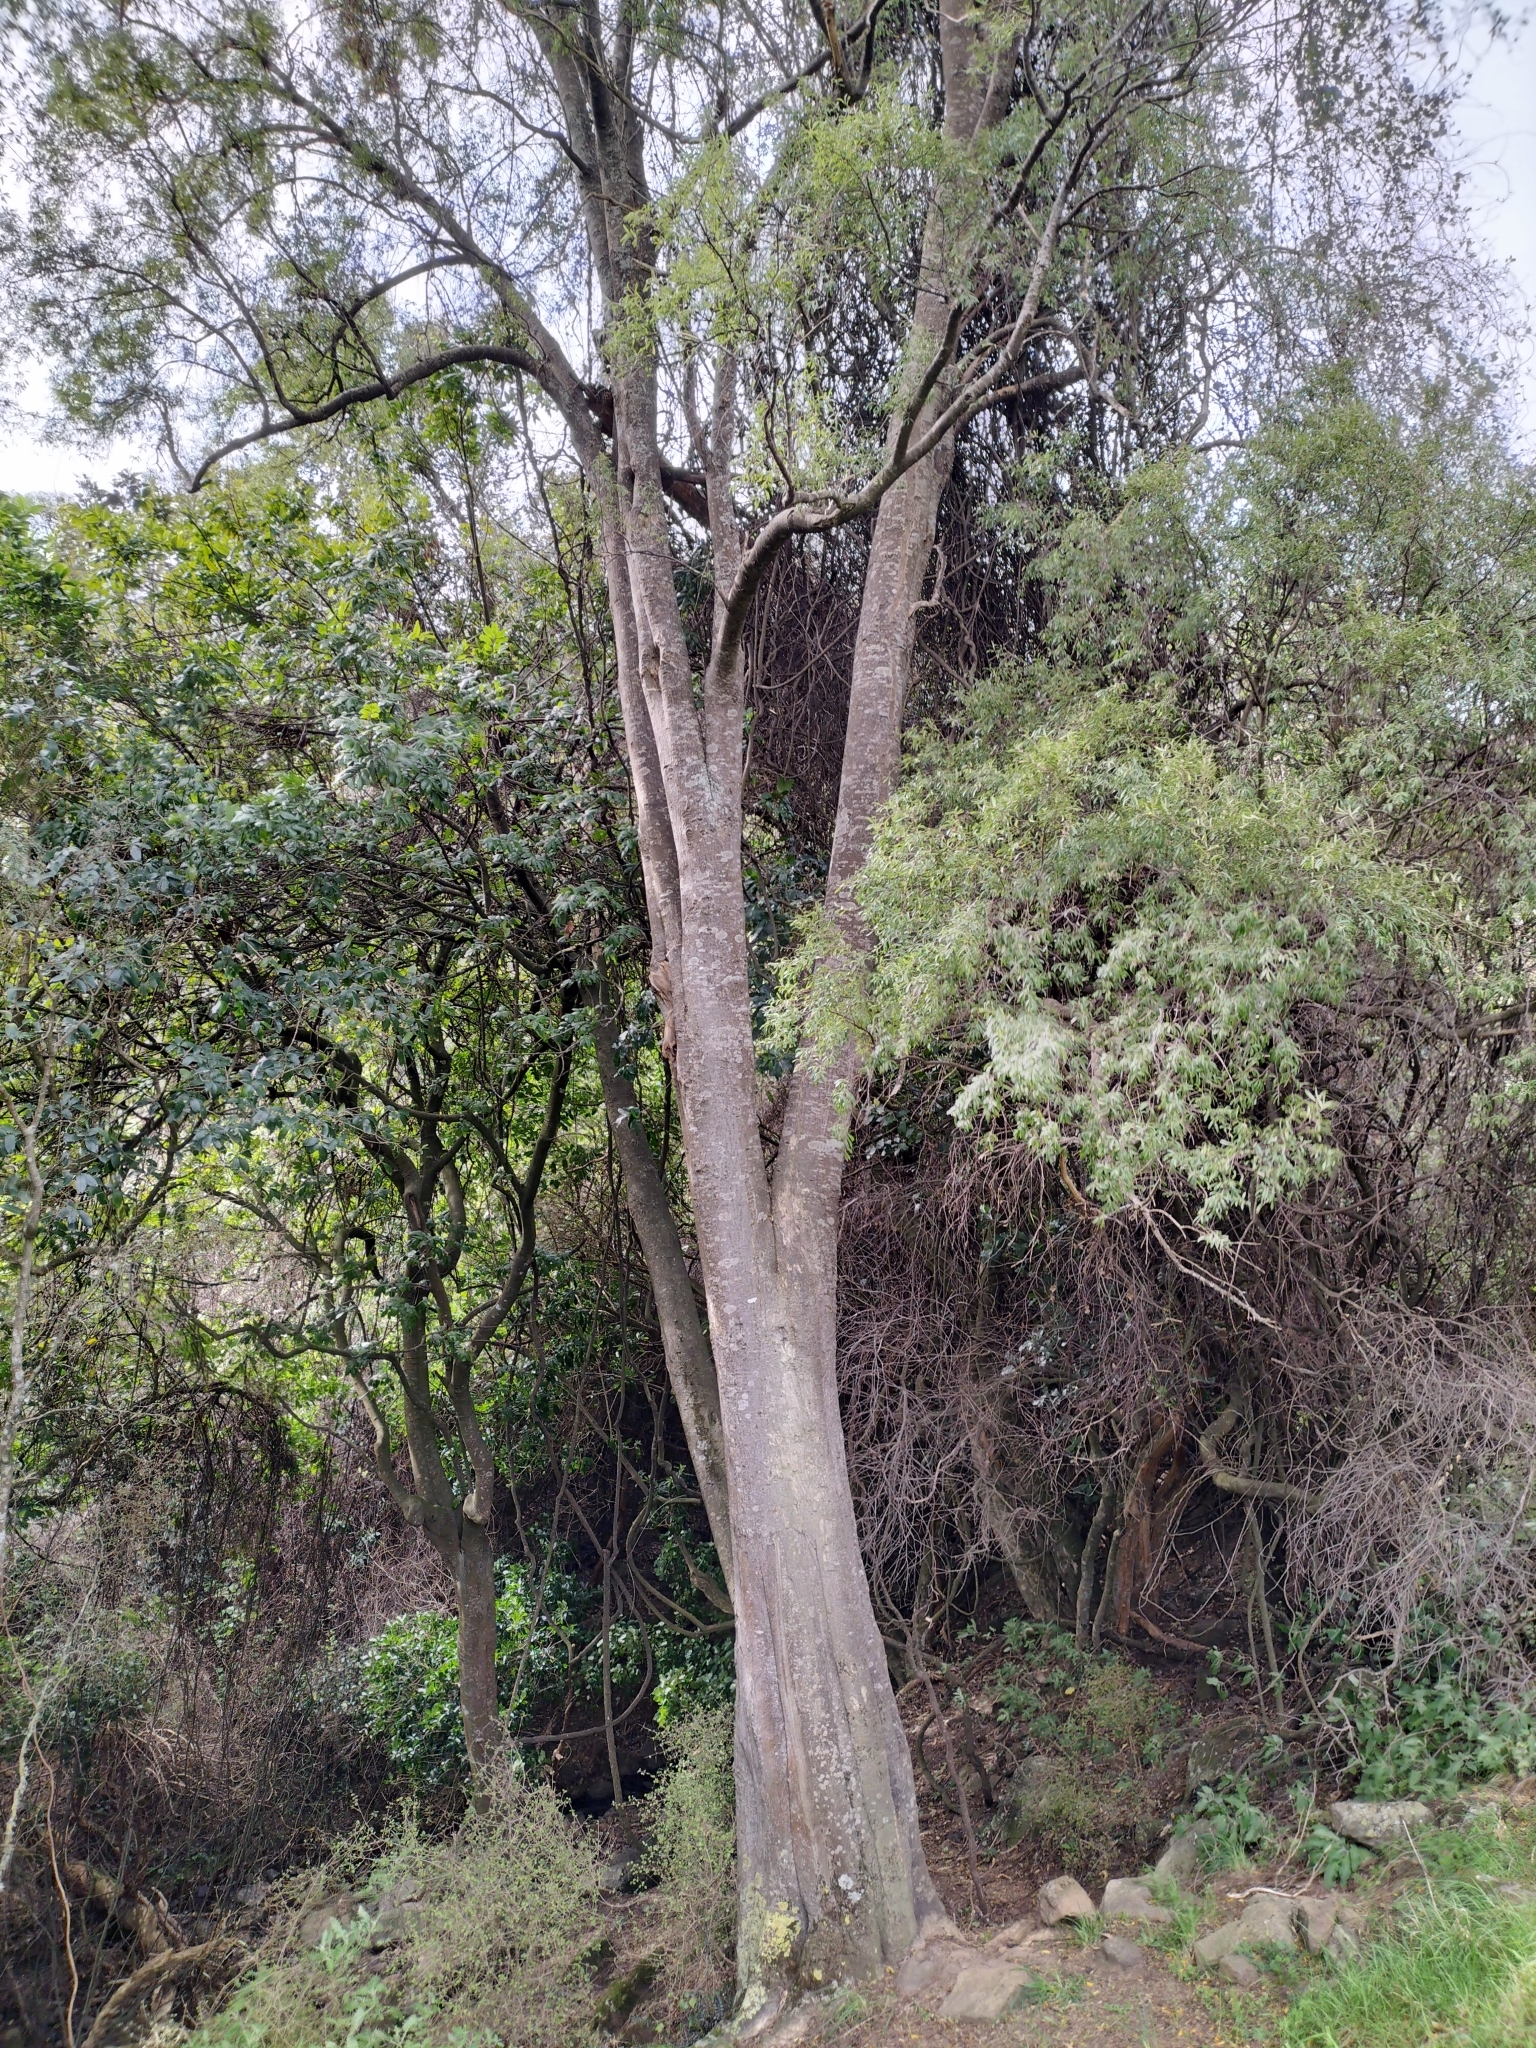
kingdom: Plantae
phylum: Tracheophyta
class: Magnoliopsida
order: Malvales
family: Malvaceae
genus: Hoheria
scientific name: Hoheria angustifolia
